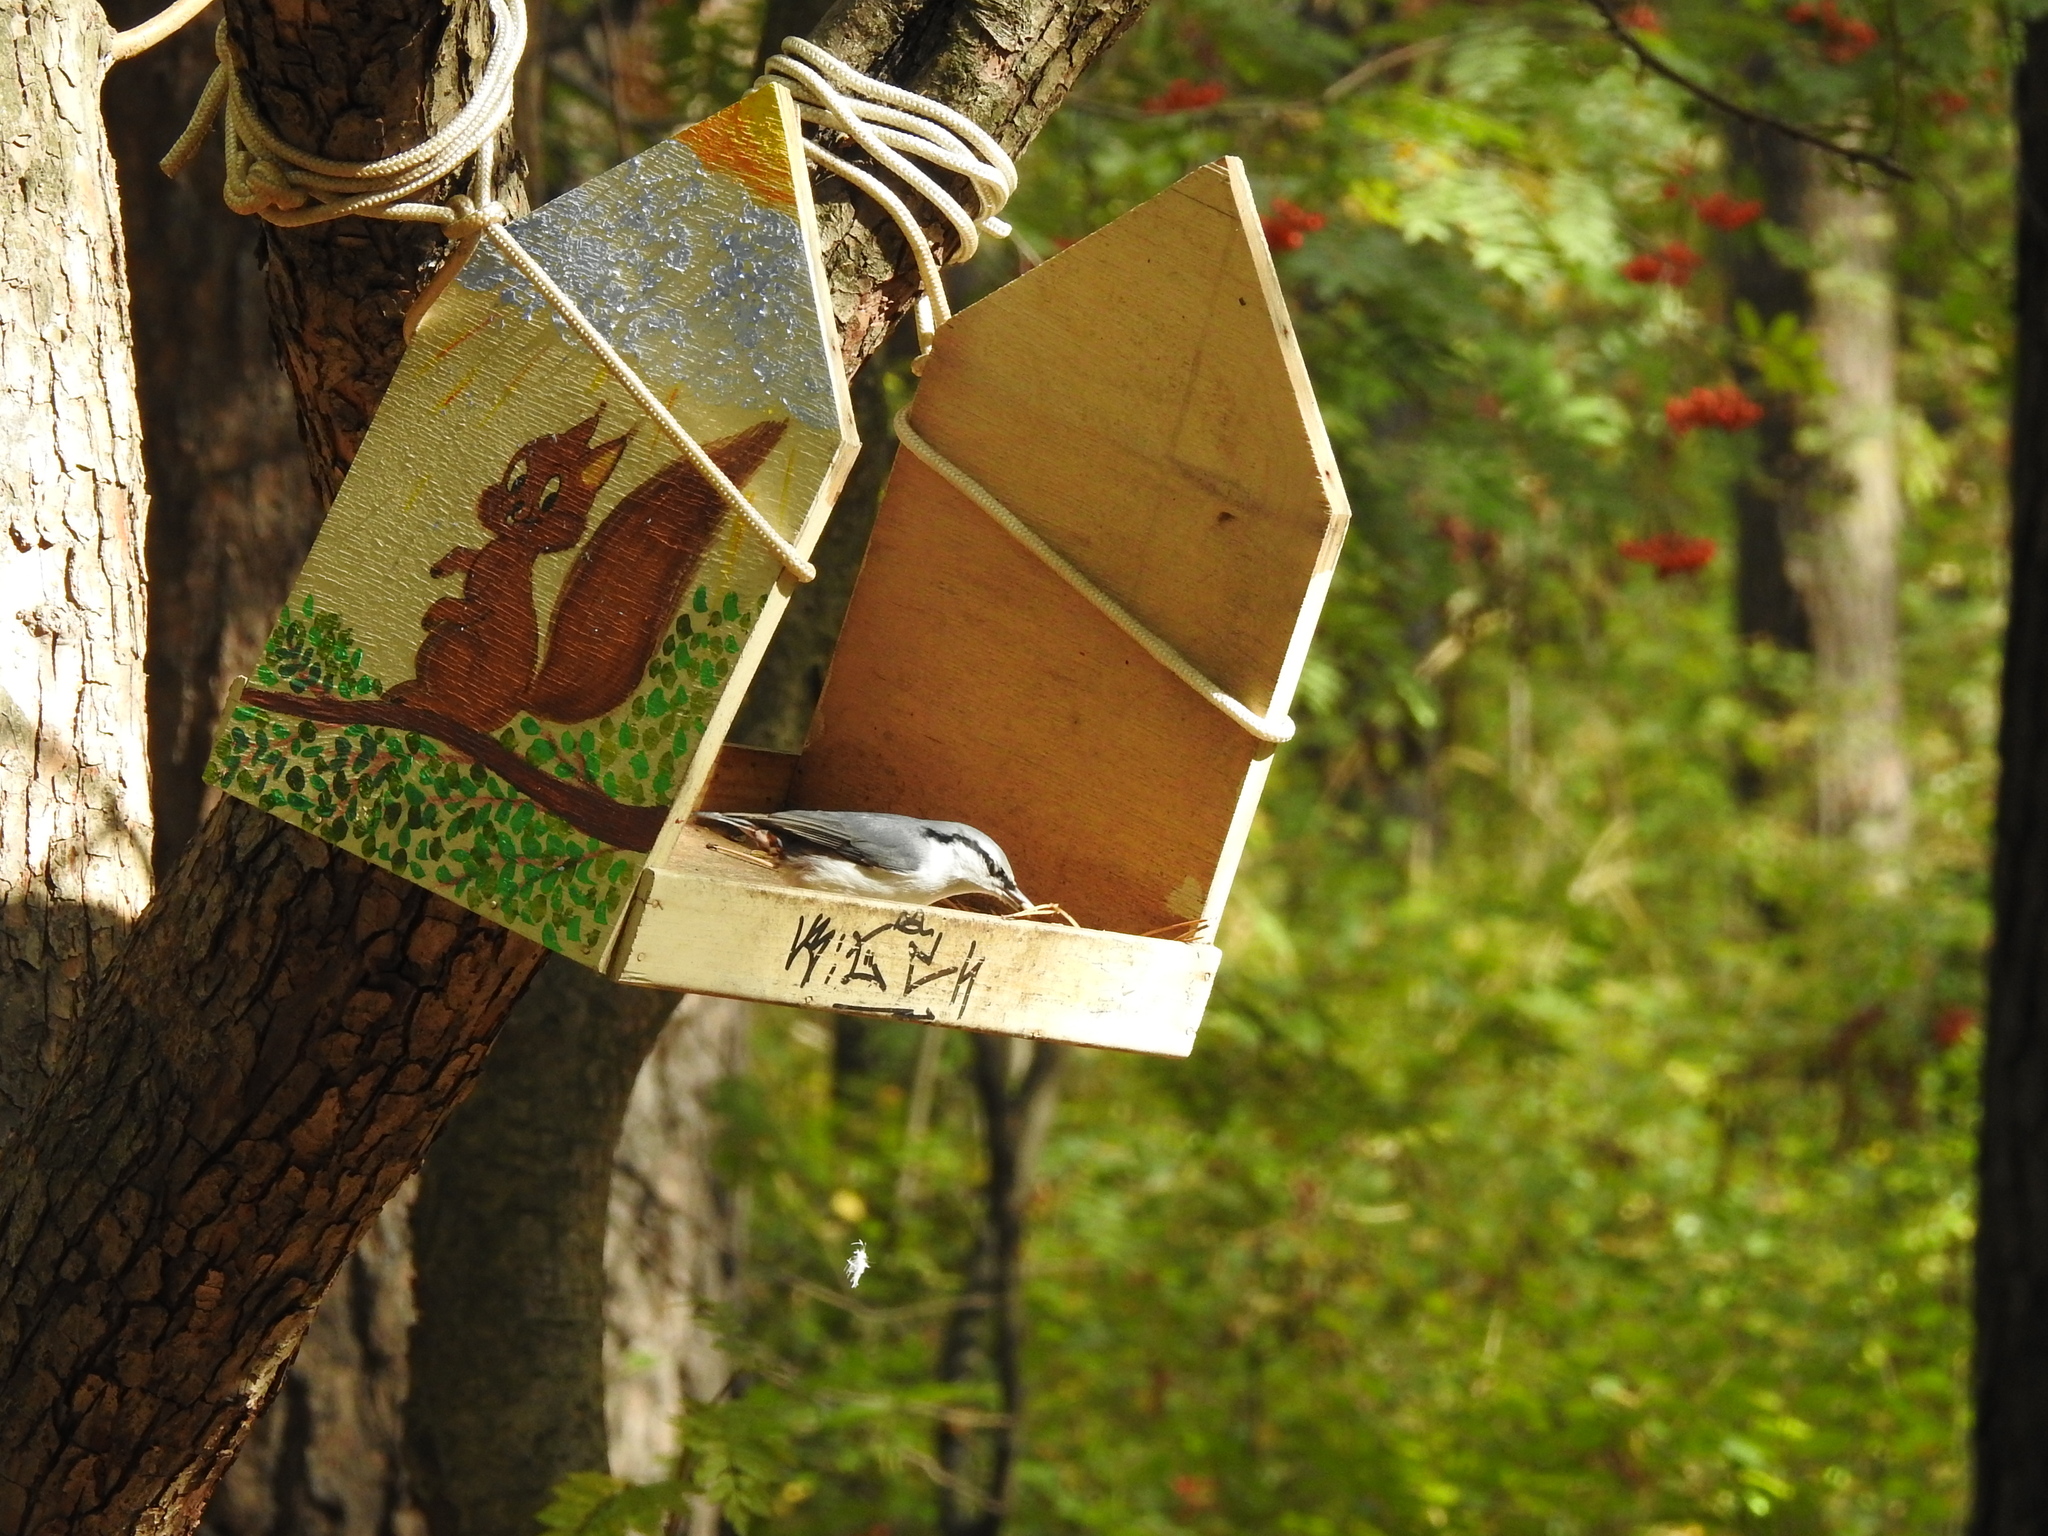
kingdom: Animalia
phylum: Chordata
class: Aves
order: Passeriformes
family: Sittidae
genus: Sitta
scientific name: Sitta europaea
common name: Eurasian nuthatch
